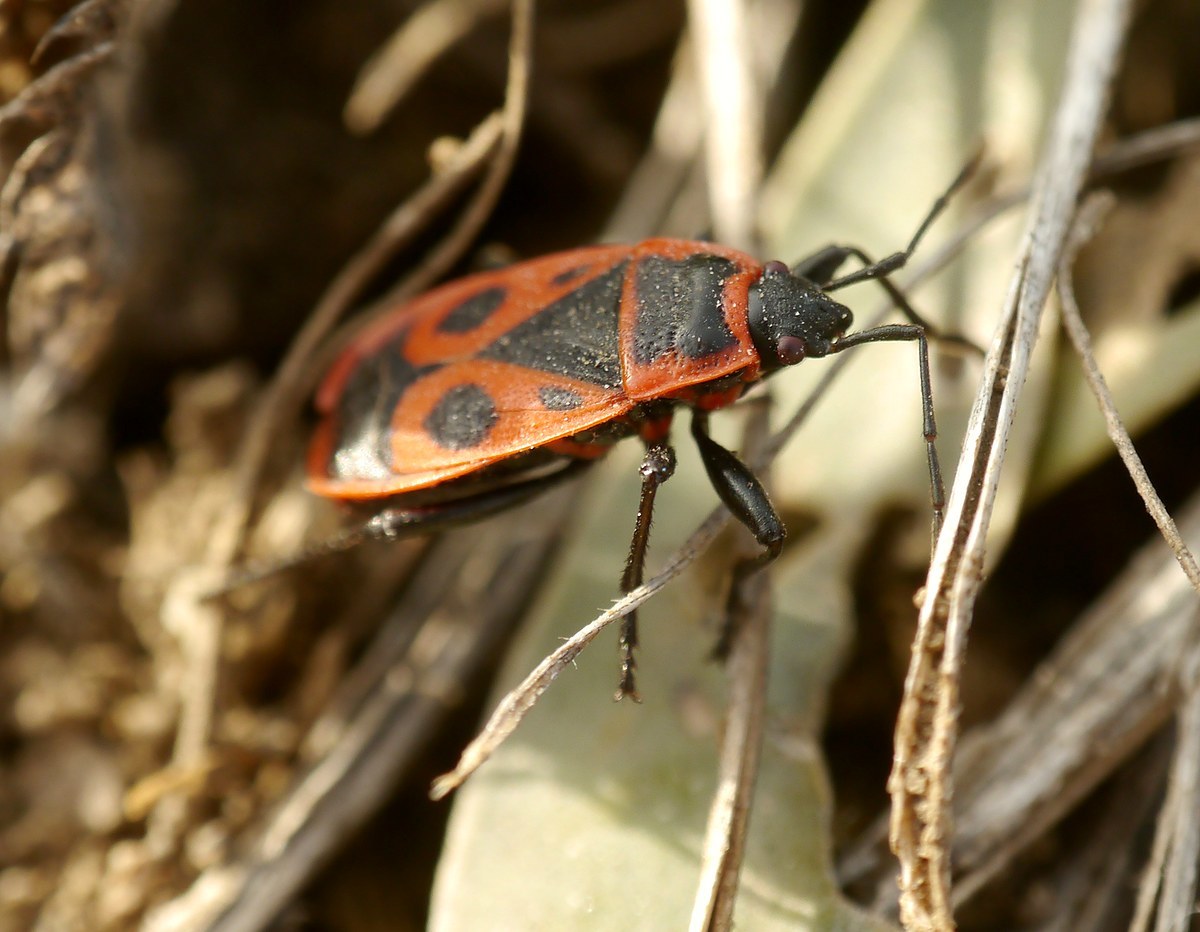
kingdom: Animalia
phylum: Arthropoda
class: Insecta
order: Hemiptera
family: Pyrrhocoridae
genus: Pyrrhocoris
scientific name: Pyrrhocoris apterus
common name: Firebug
